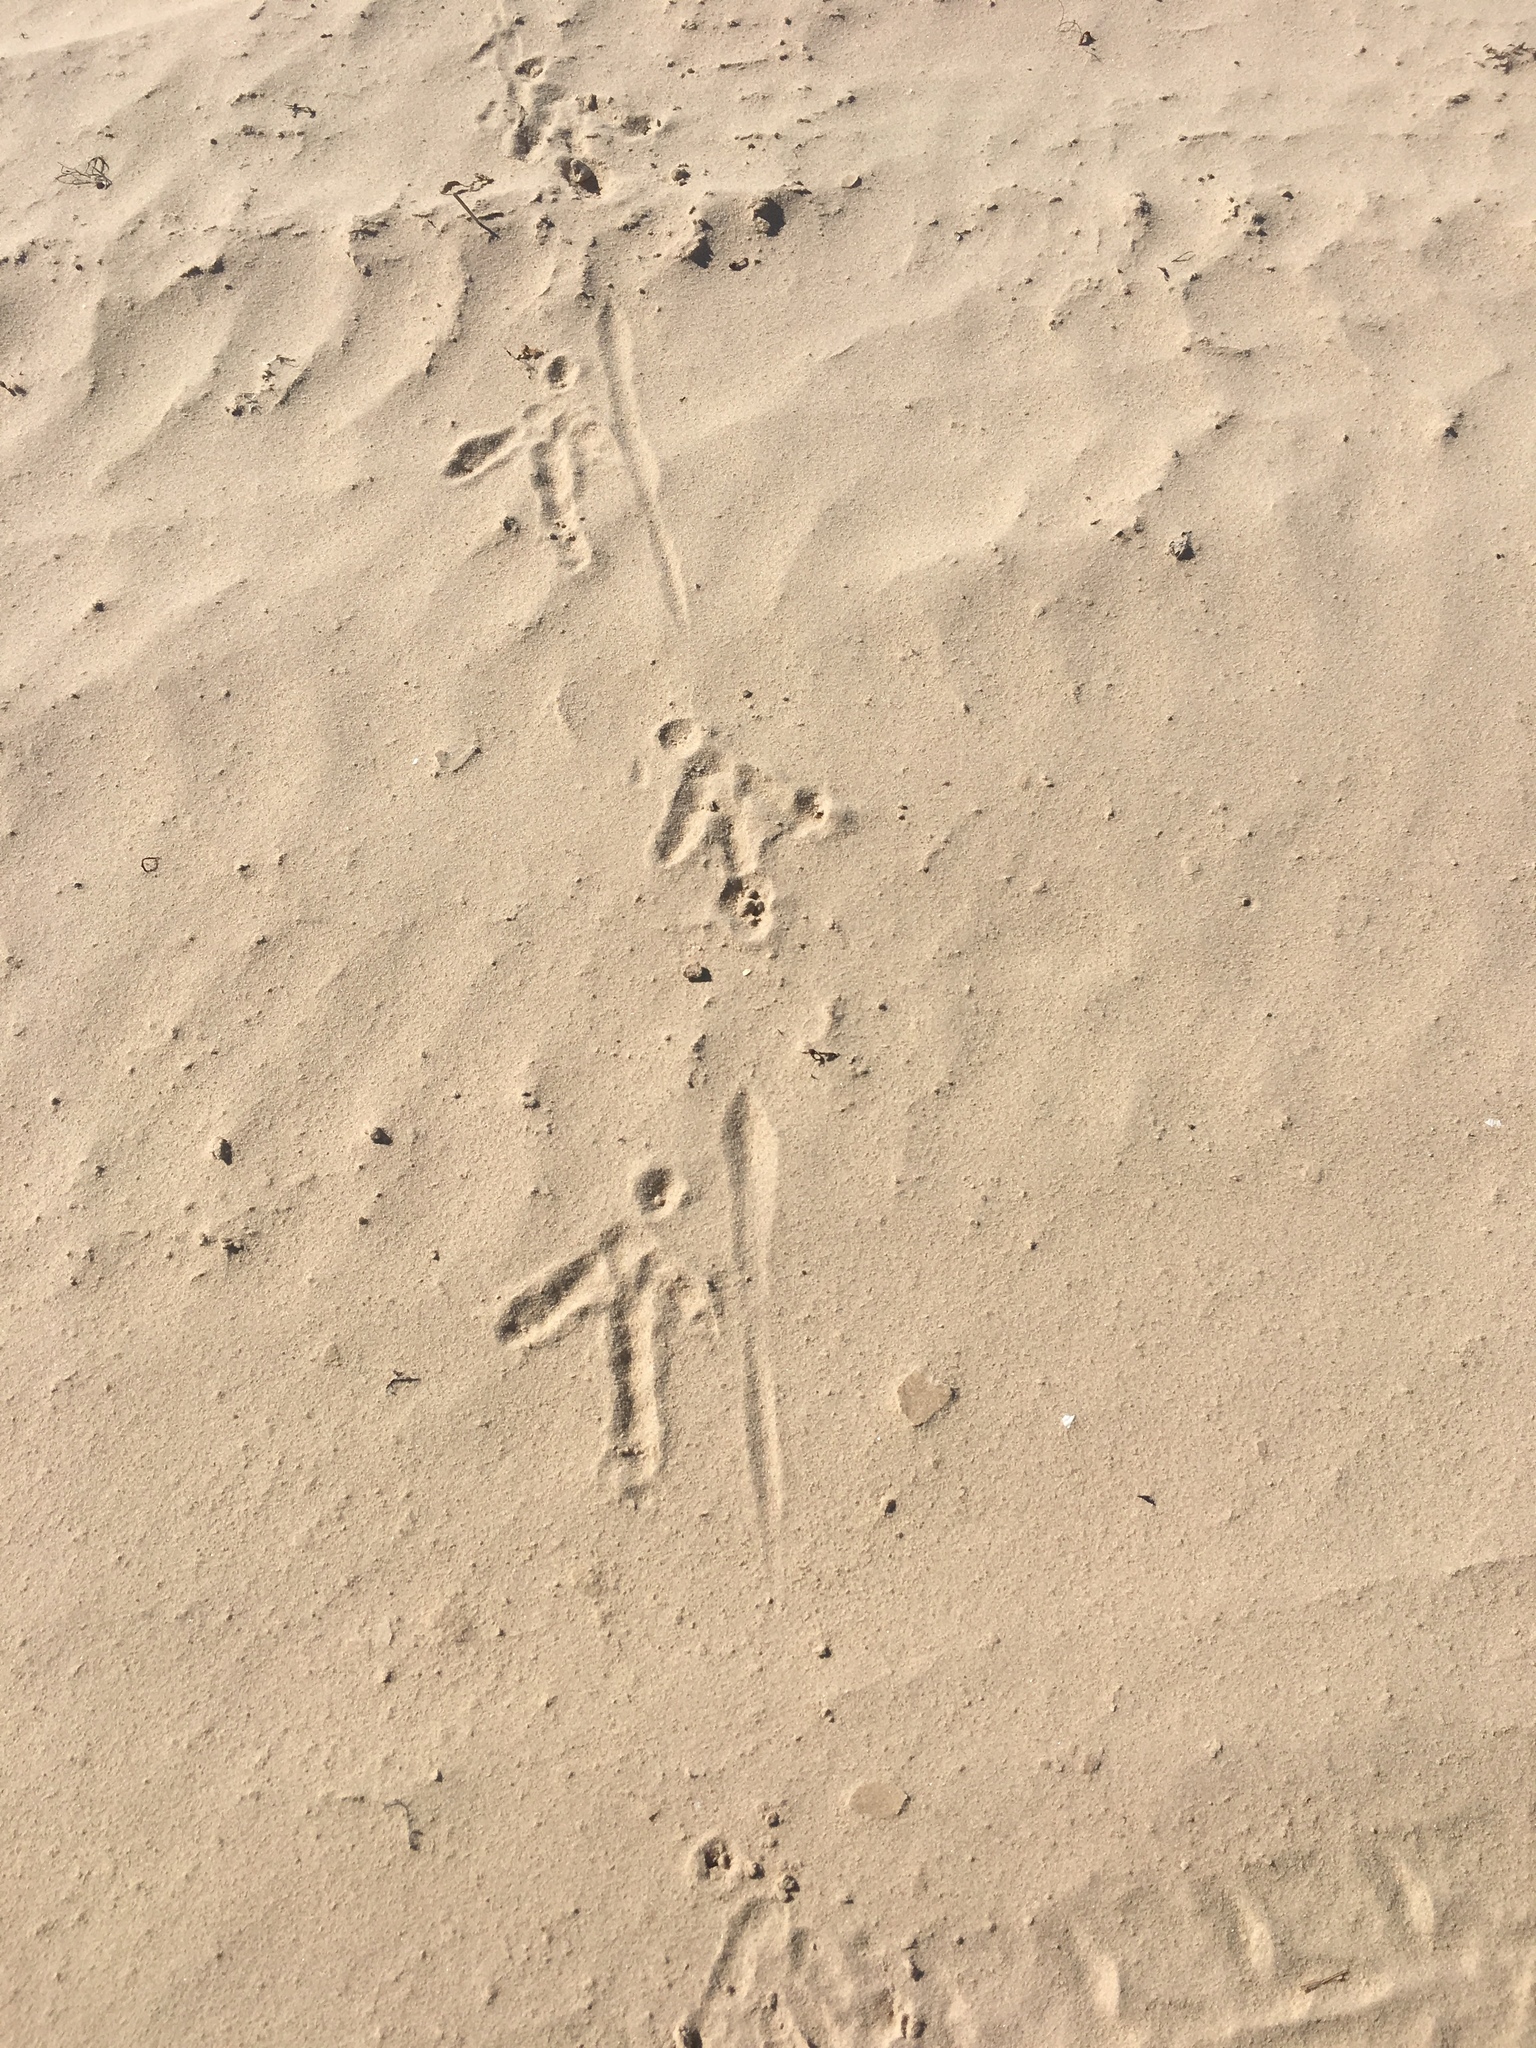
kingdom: Animalia
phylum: Chordata
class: Aves
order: Accipitriformes
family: Cathartidae
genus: Cathartes
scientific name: Cathartes aura
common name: Turkey vulture
